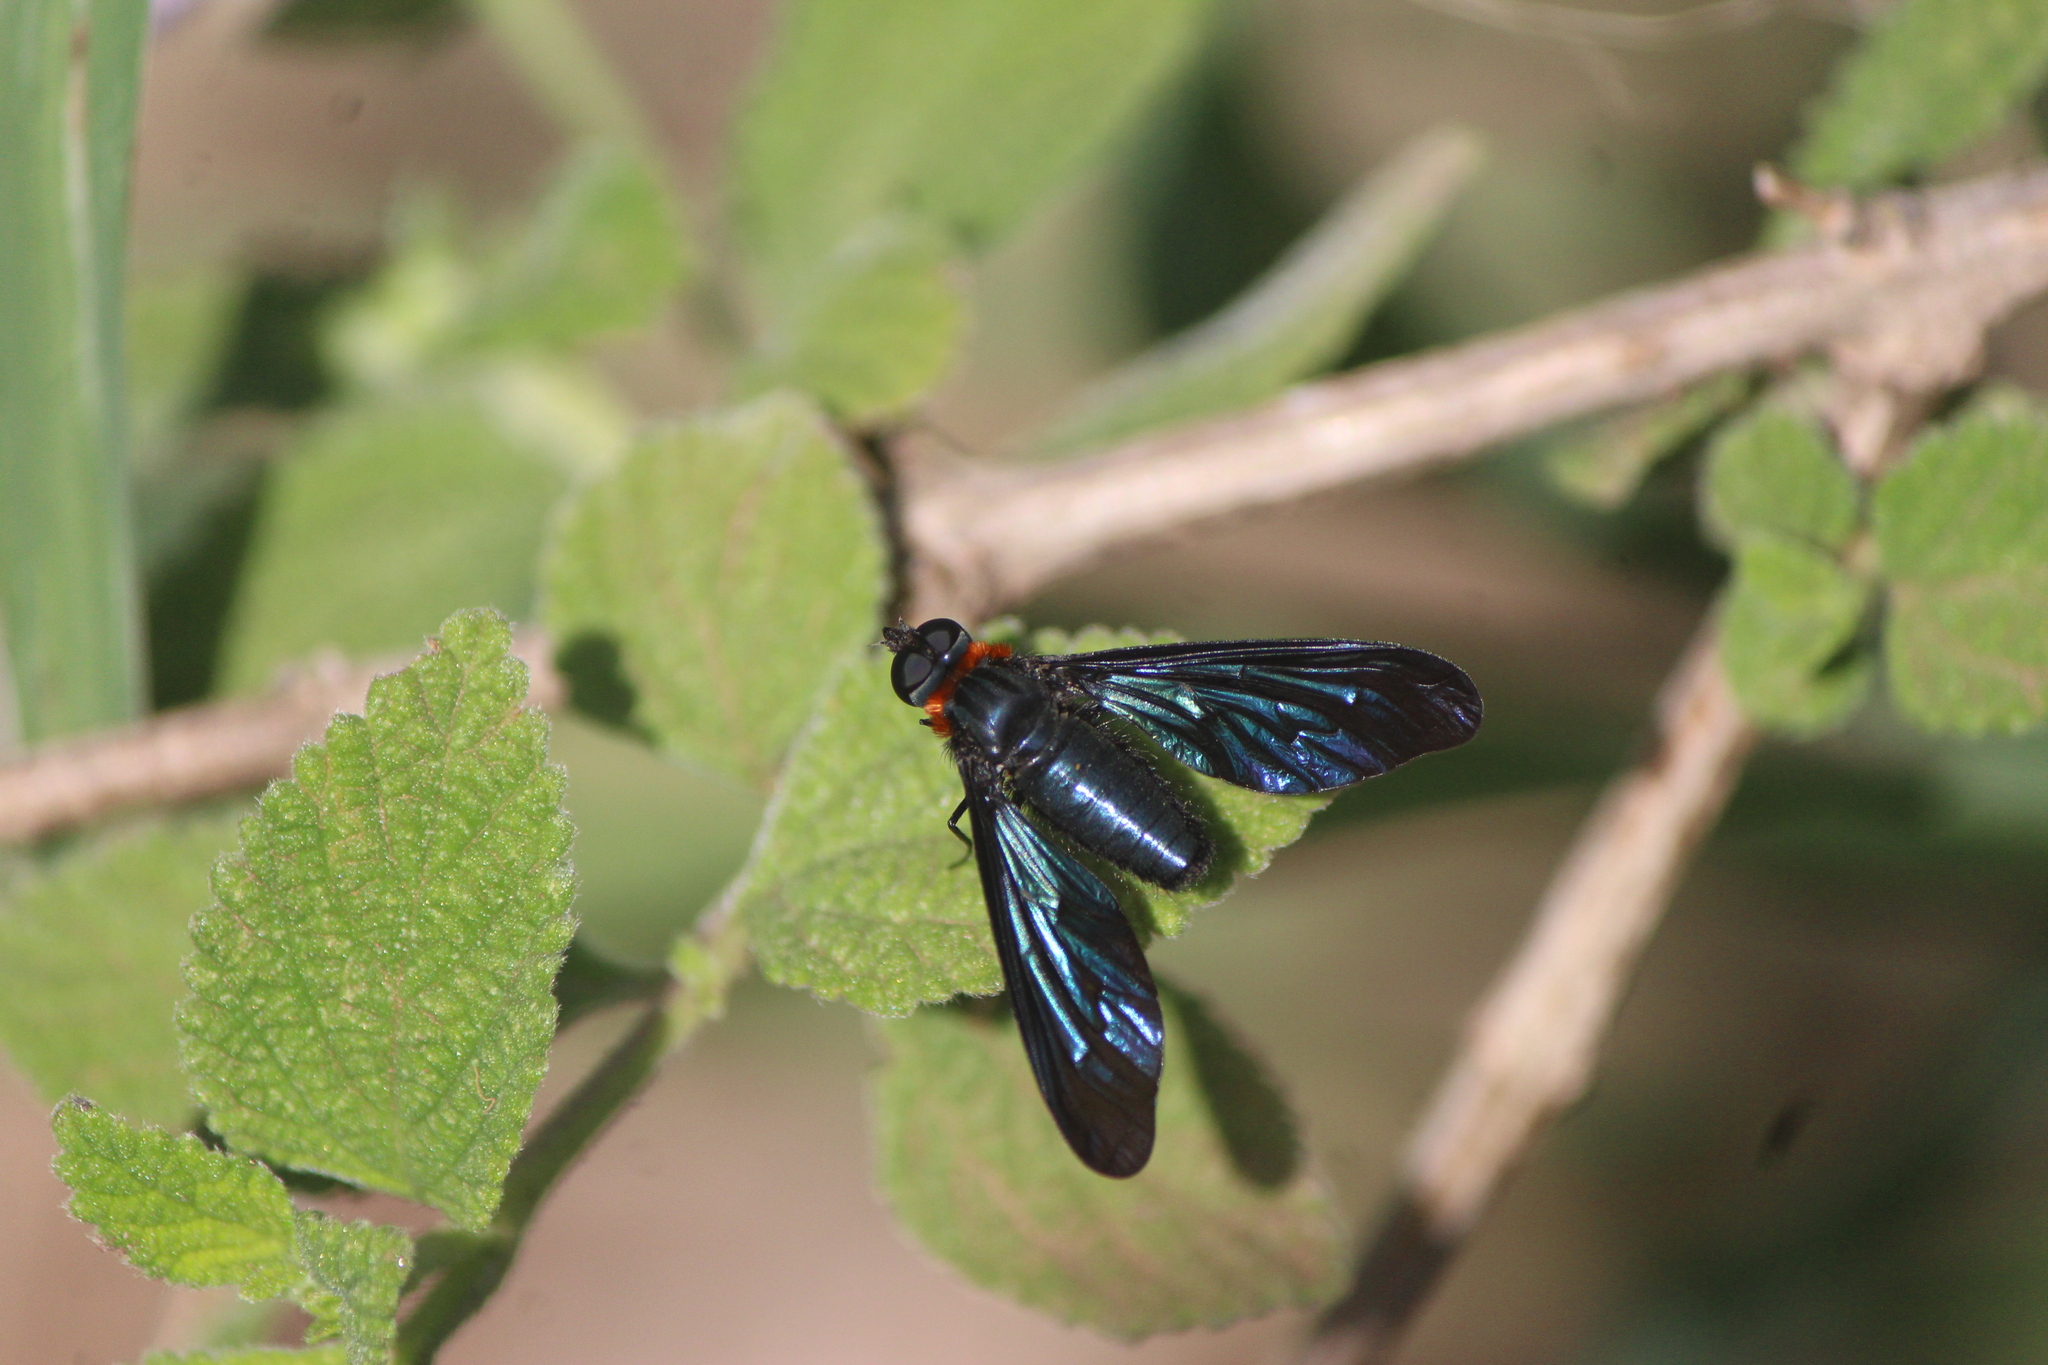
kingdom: Animalia
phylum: Arthropoda
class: Insecta
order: Diptera
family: Bombyliidae
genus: Cyananthrax
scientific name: Cyananthrax cyanoptera
